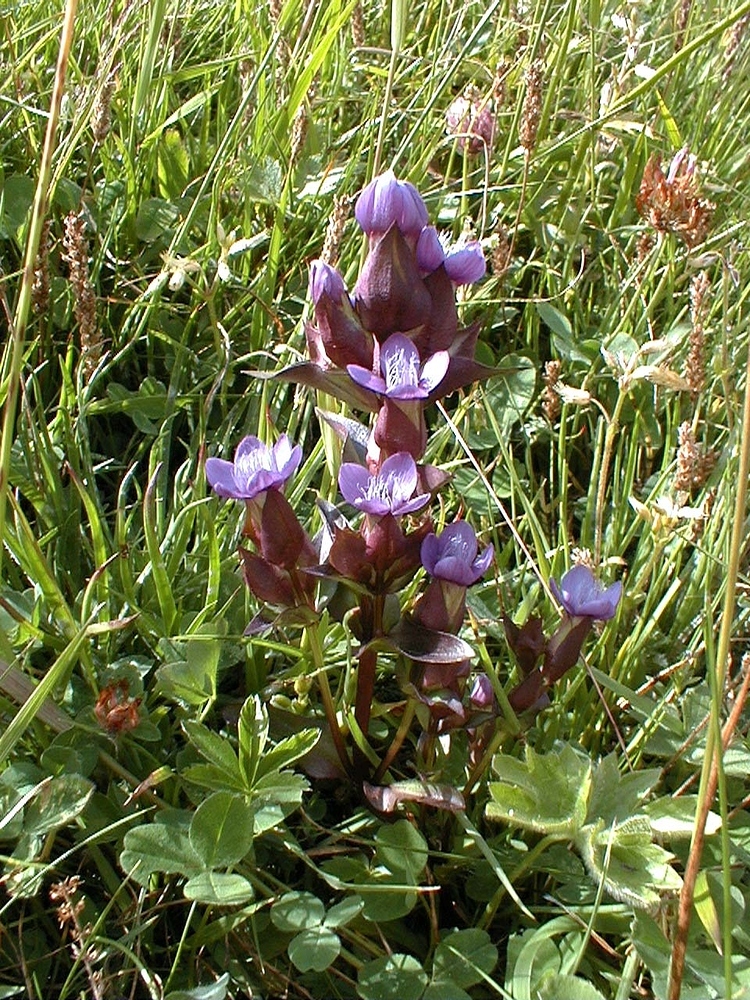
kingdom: Plantae
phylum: Tracheophyta
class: Magnoliopsida
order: Gentianales
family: Gentianaceae
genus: Gentianella
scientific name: Gentianella campestris
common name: Field gentian
